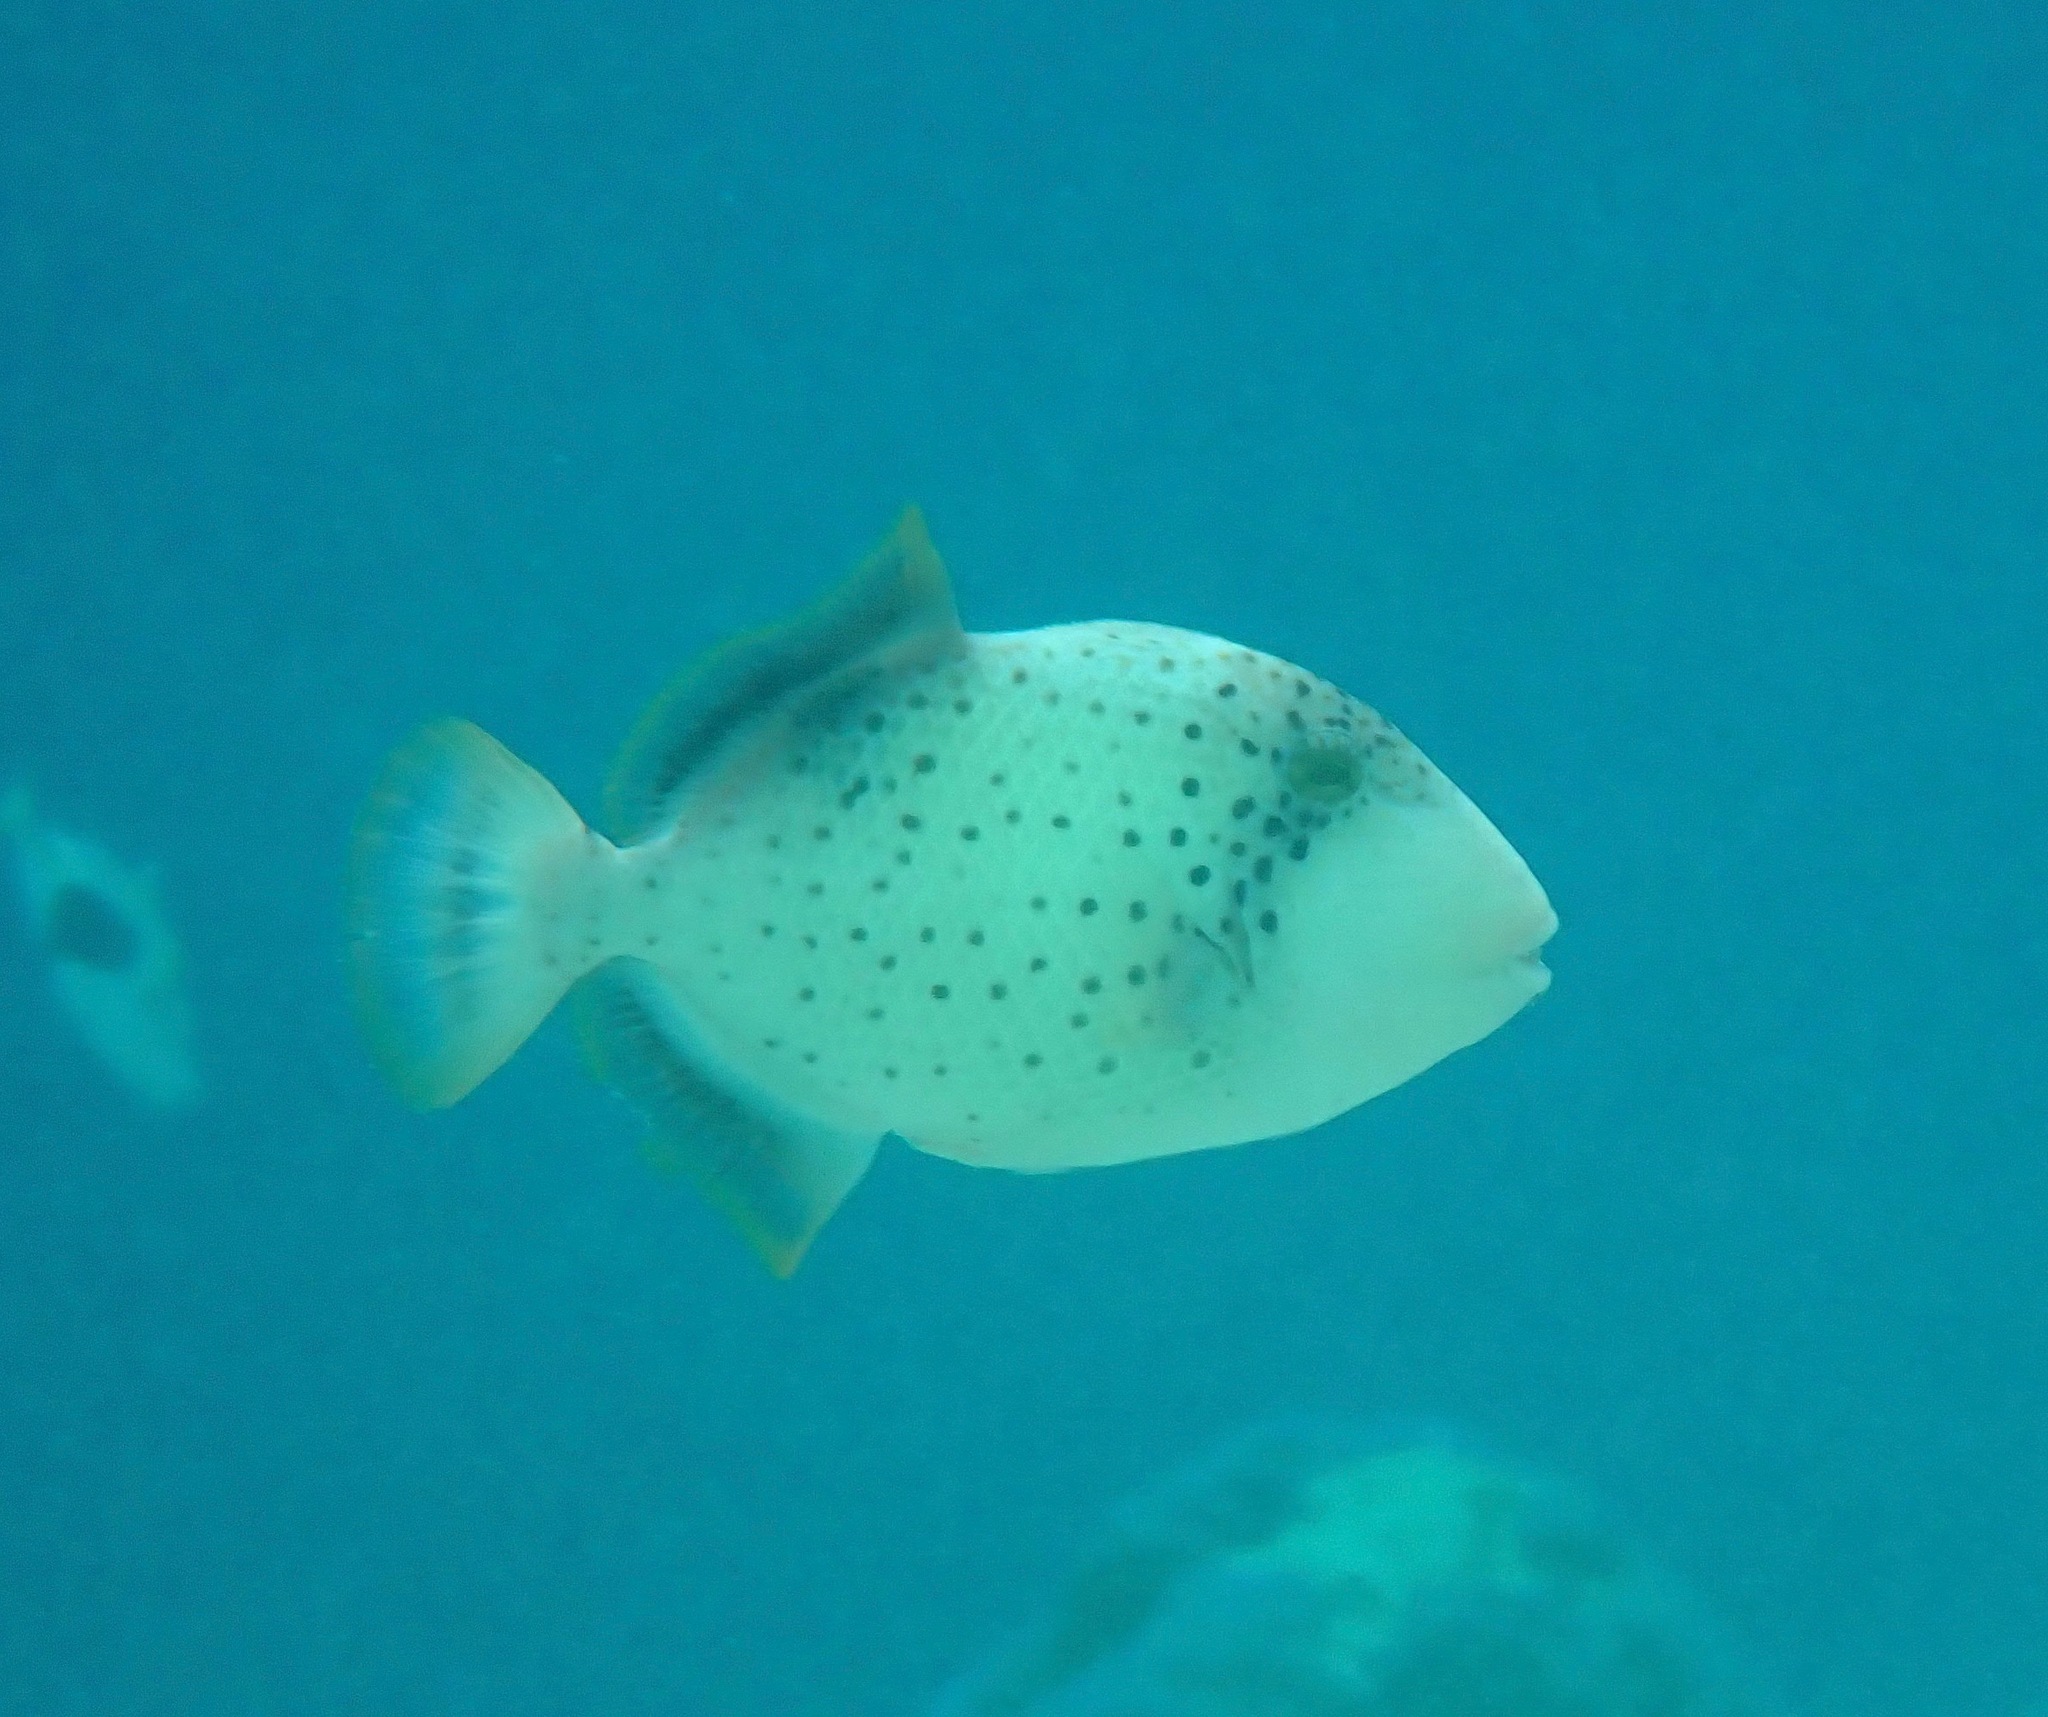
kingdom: Animalia
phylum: Chordata
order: Tetraodontiformes
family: Balistidae
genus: Pseudobalistes
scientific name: Pseudobalistes flavimarginatus
